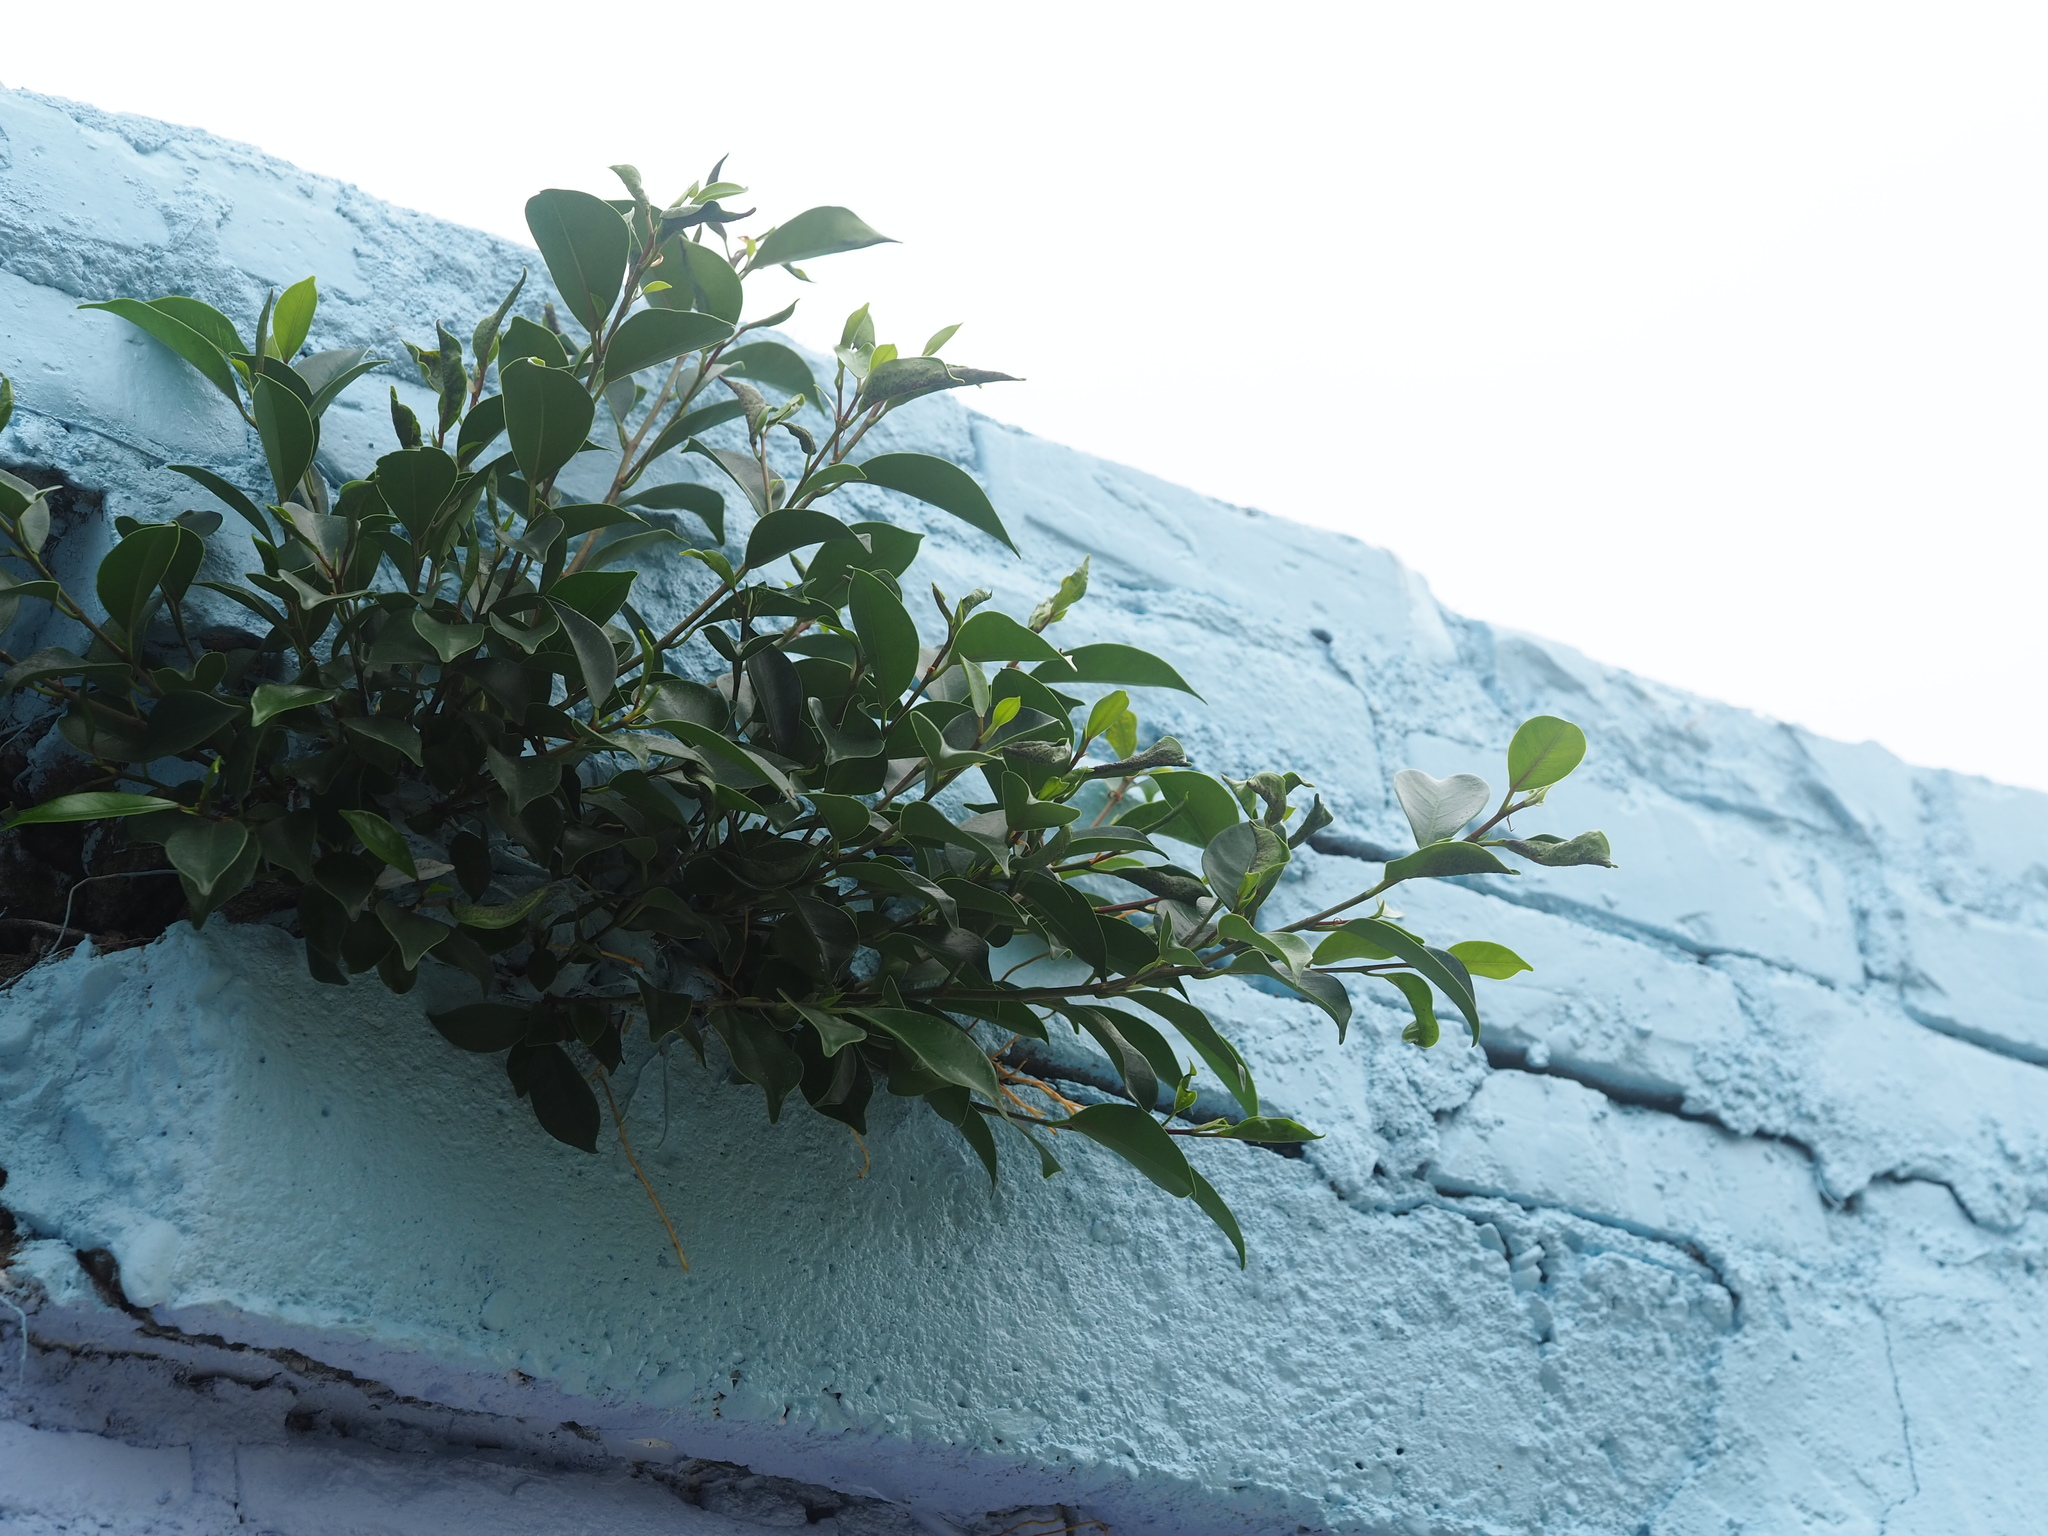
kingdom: Plantae
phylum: Tracheophyta
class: Magnoliopsida
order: Rosales
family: Moraceae
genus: Ficus
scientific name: Ficus microcarpa
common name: Chinese banyan
